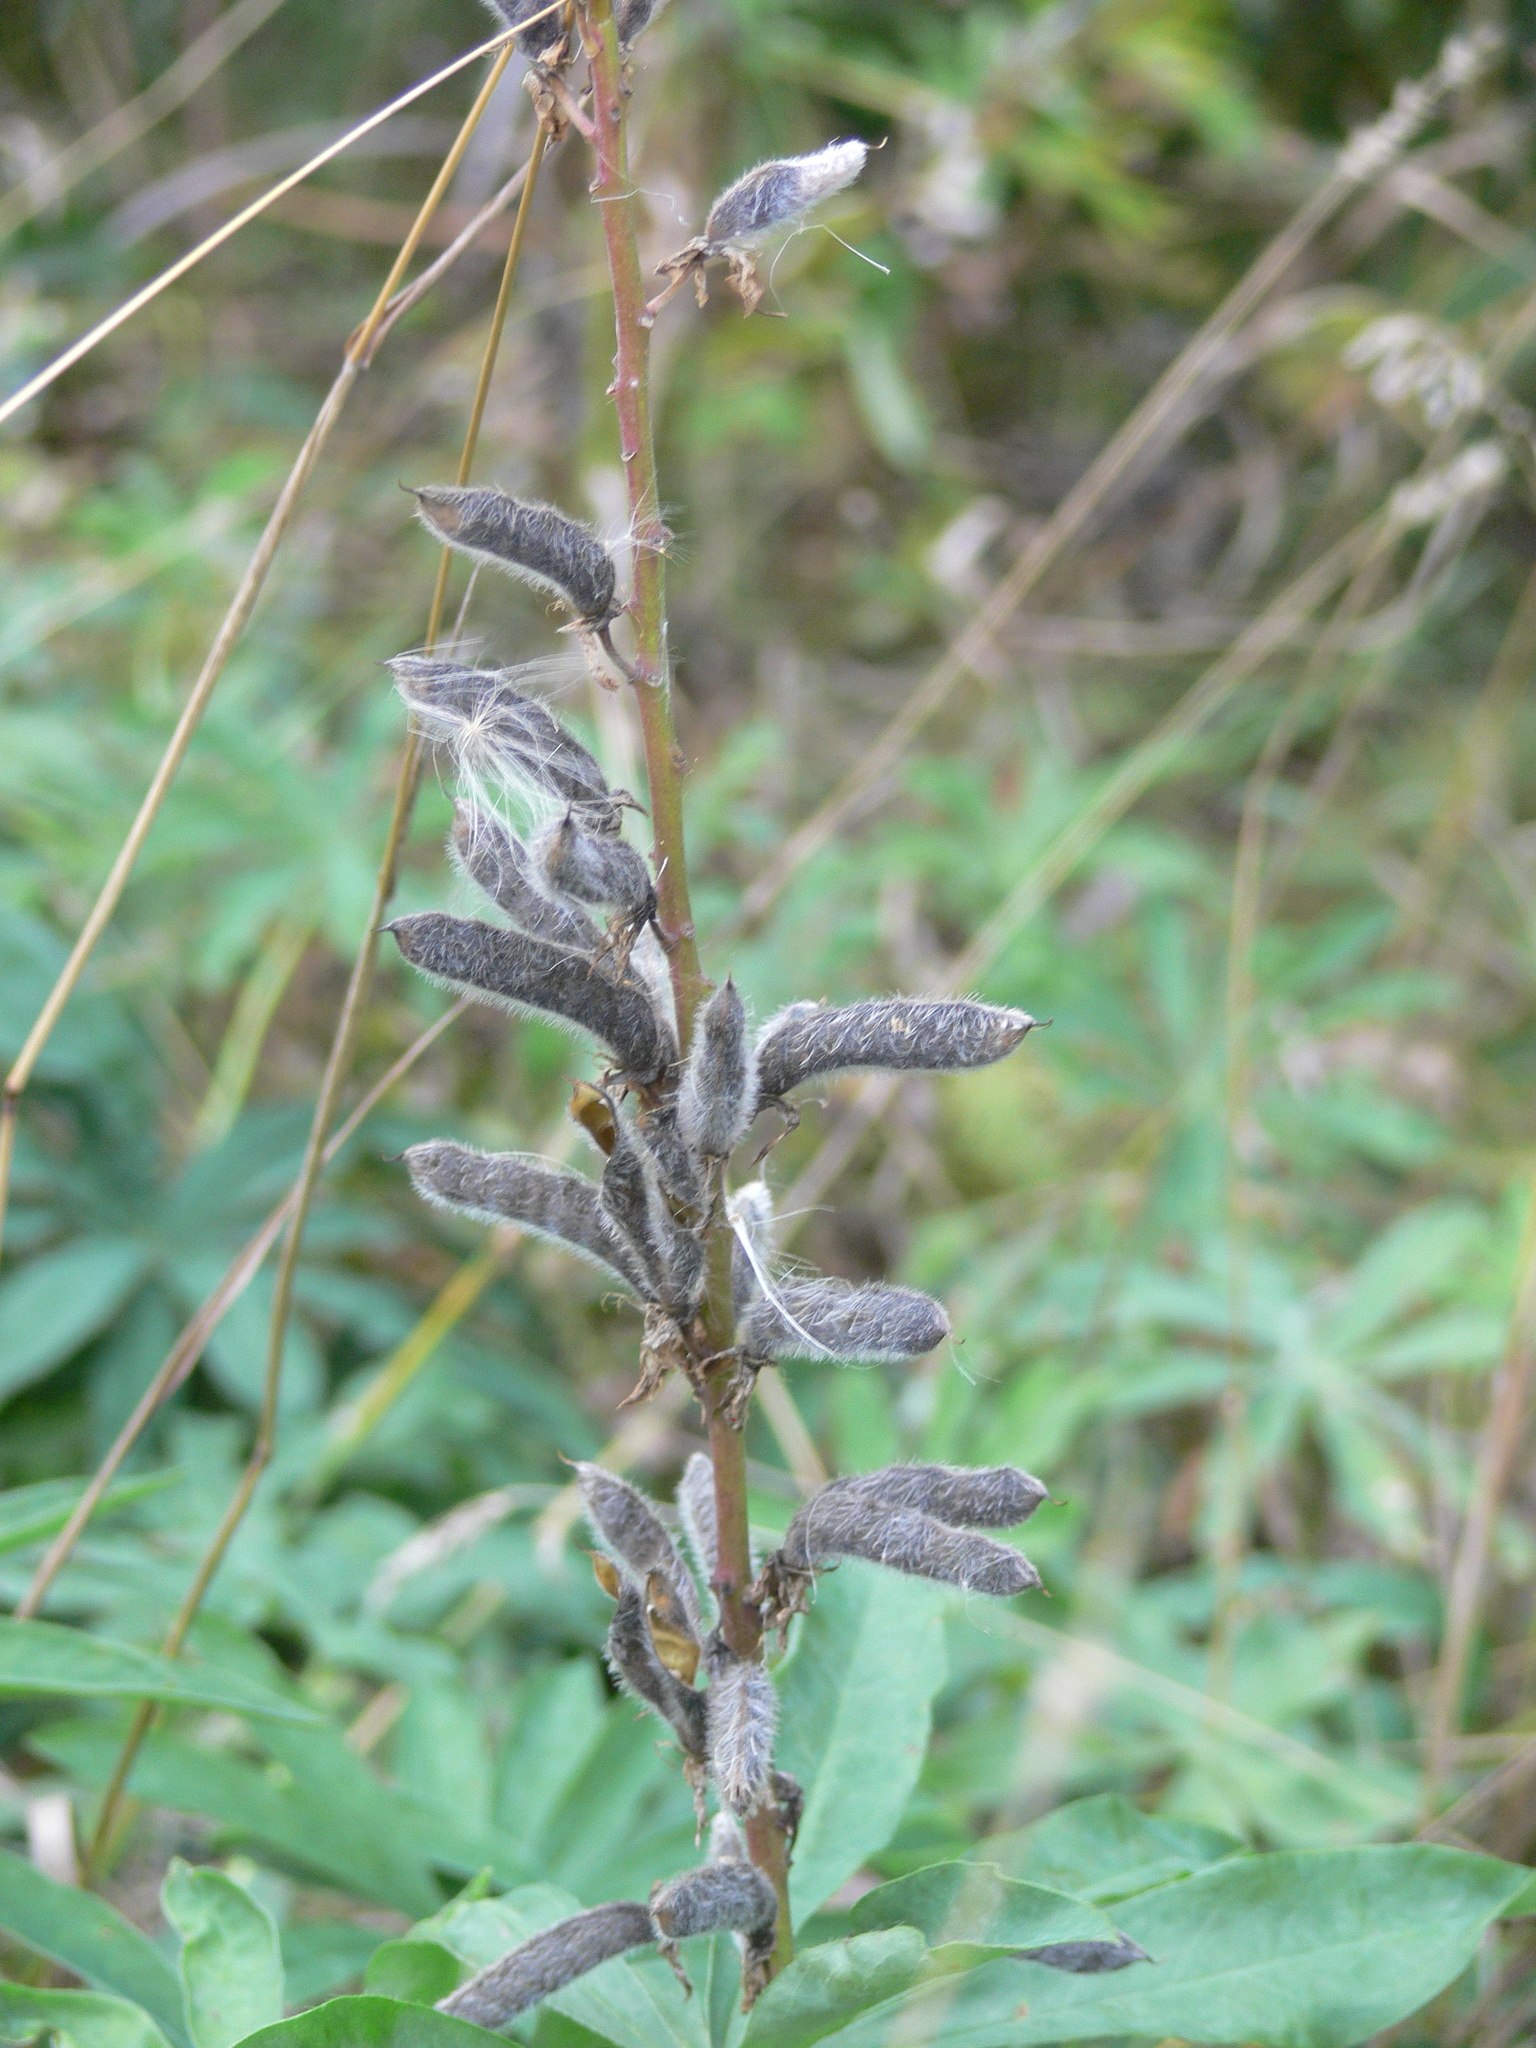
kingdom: Plantae
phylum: Tracheophyta
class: Magnoliopsida
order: Fabales
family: Fabaceae
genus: Lupinus
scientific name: Lupinus polyphyllus
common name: Garden lupin
